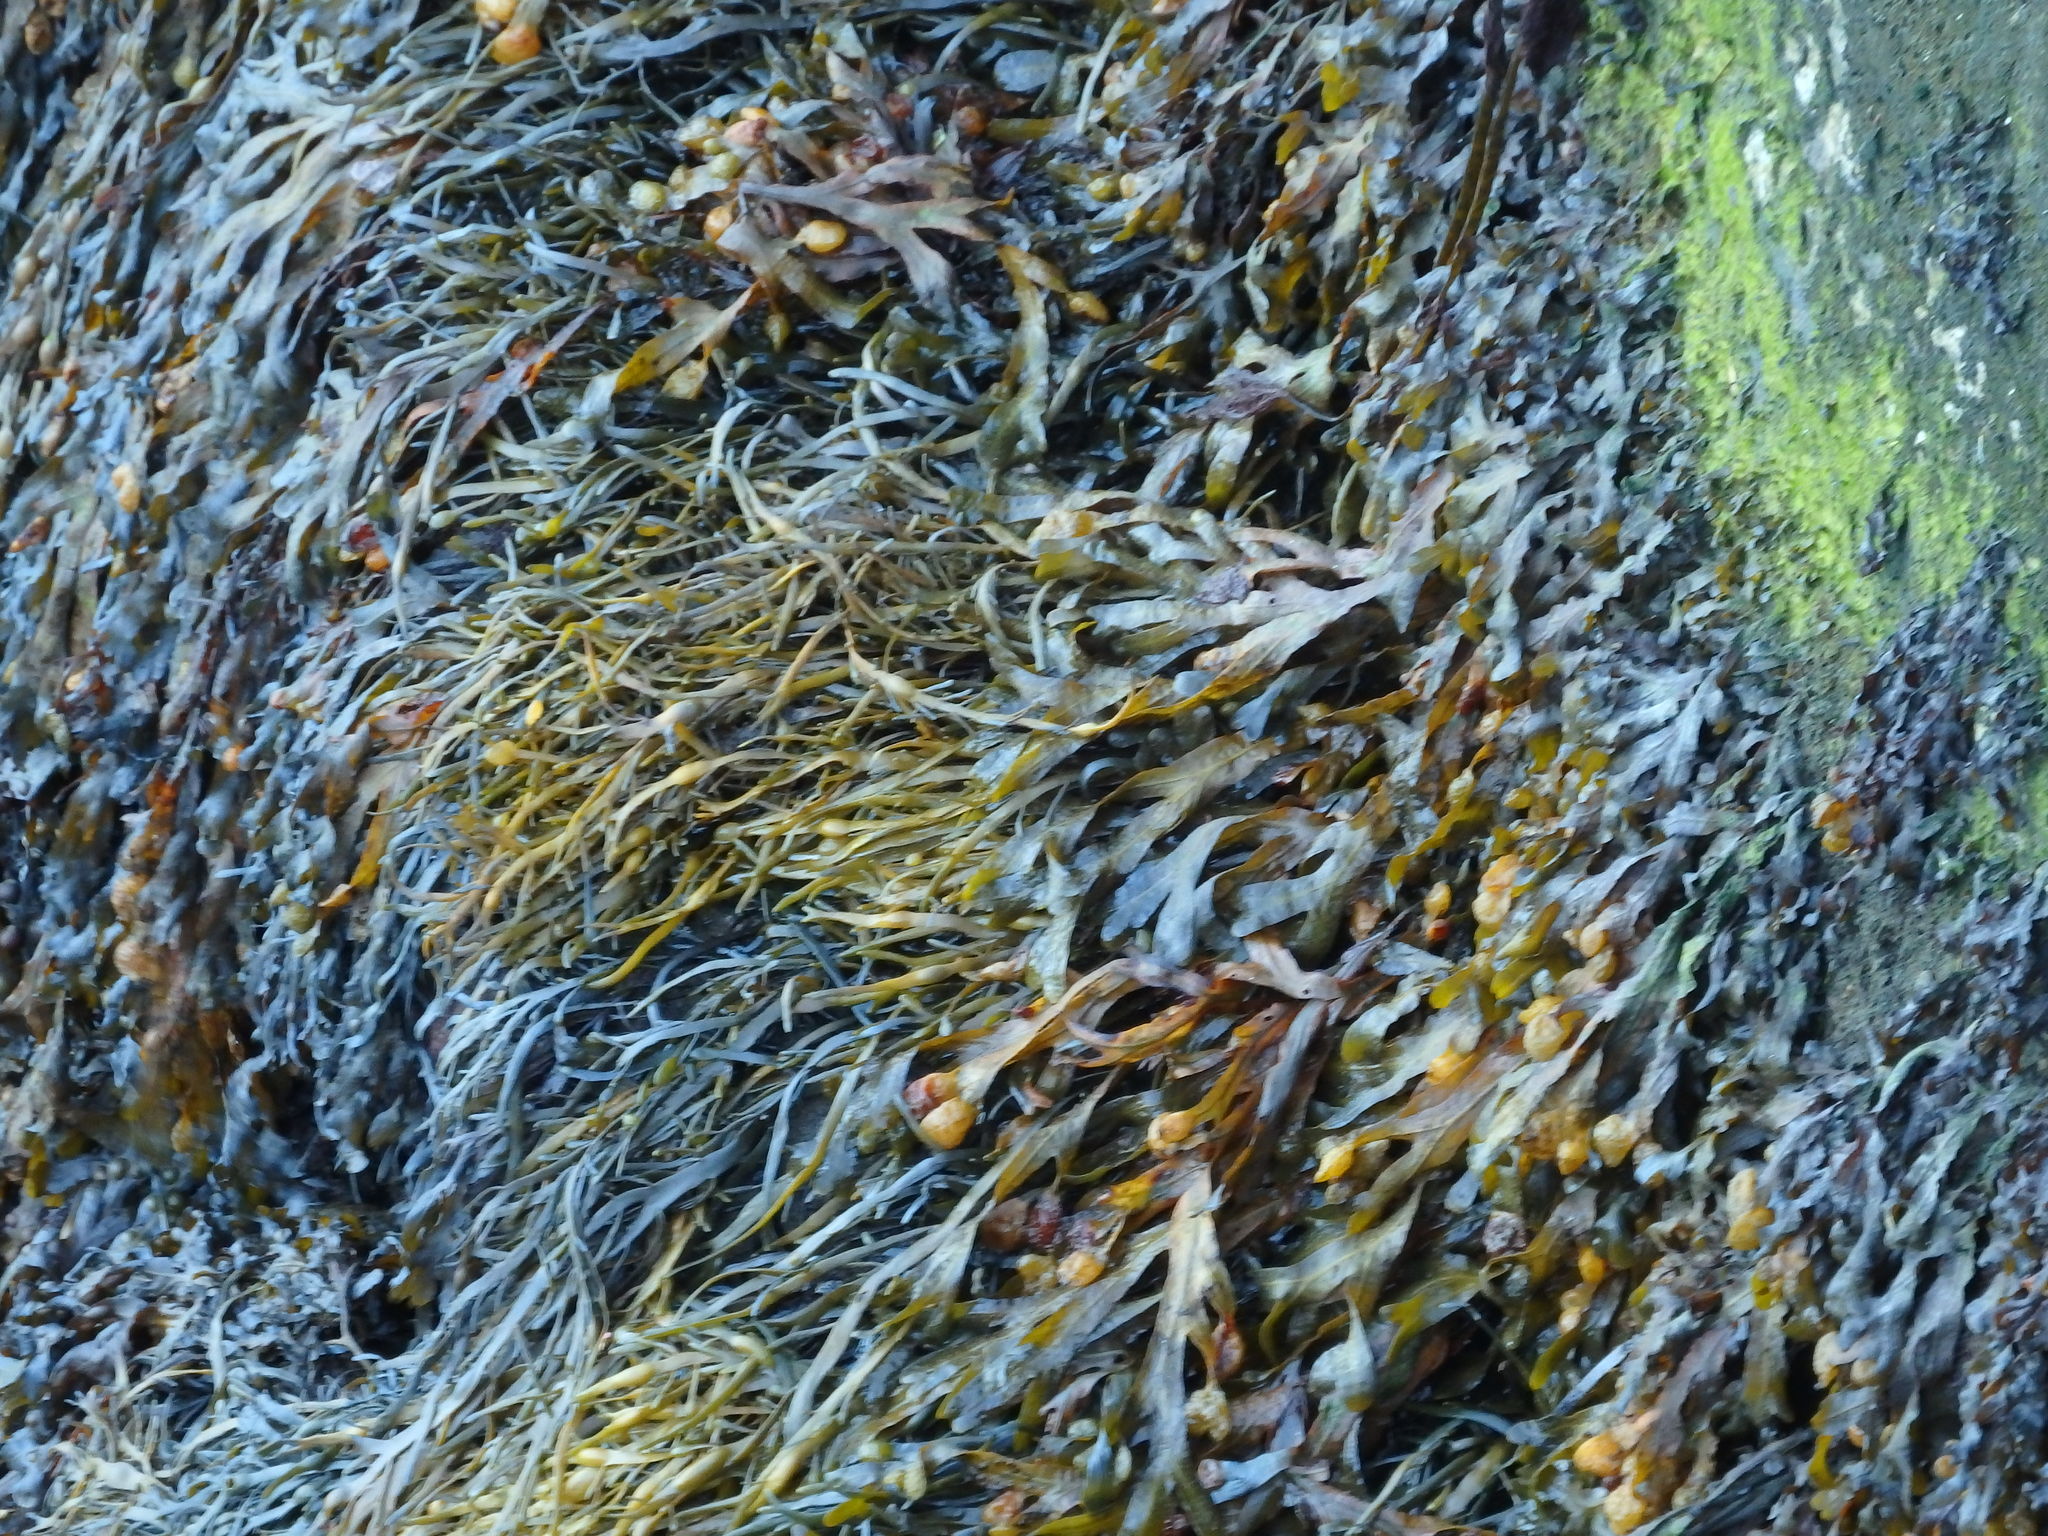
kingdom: Chromista
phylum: Ochrophyta
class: Phaeophyceae
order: Fucales
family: Fucaceae
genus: Fucus
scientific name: Fucus spiralis
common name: Spiral wrack
